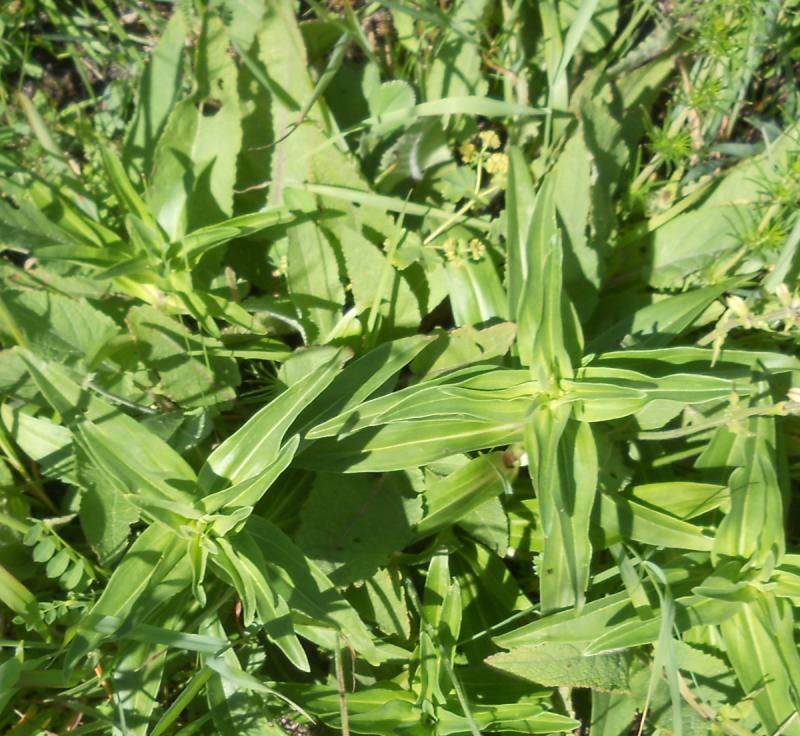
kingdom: Plantae
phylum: Tracheophyta
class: Magnoliopsida
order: Gentianales
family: Gentianaceae
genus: Gentiana
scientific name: Gentiana cruciata
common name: Cross gentian
